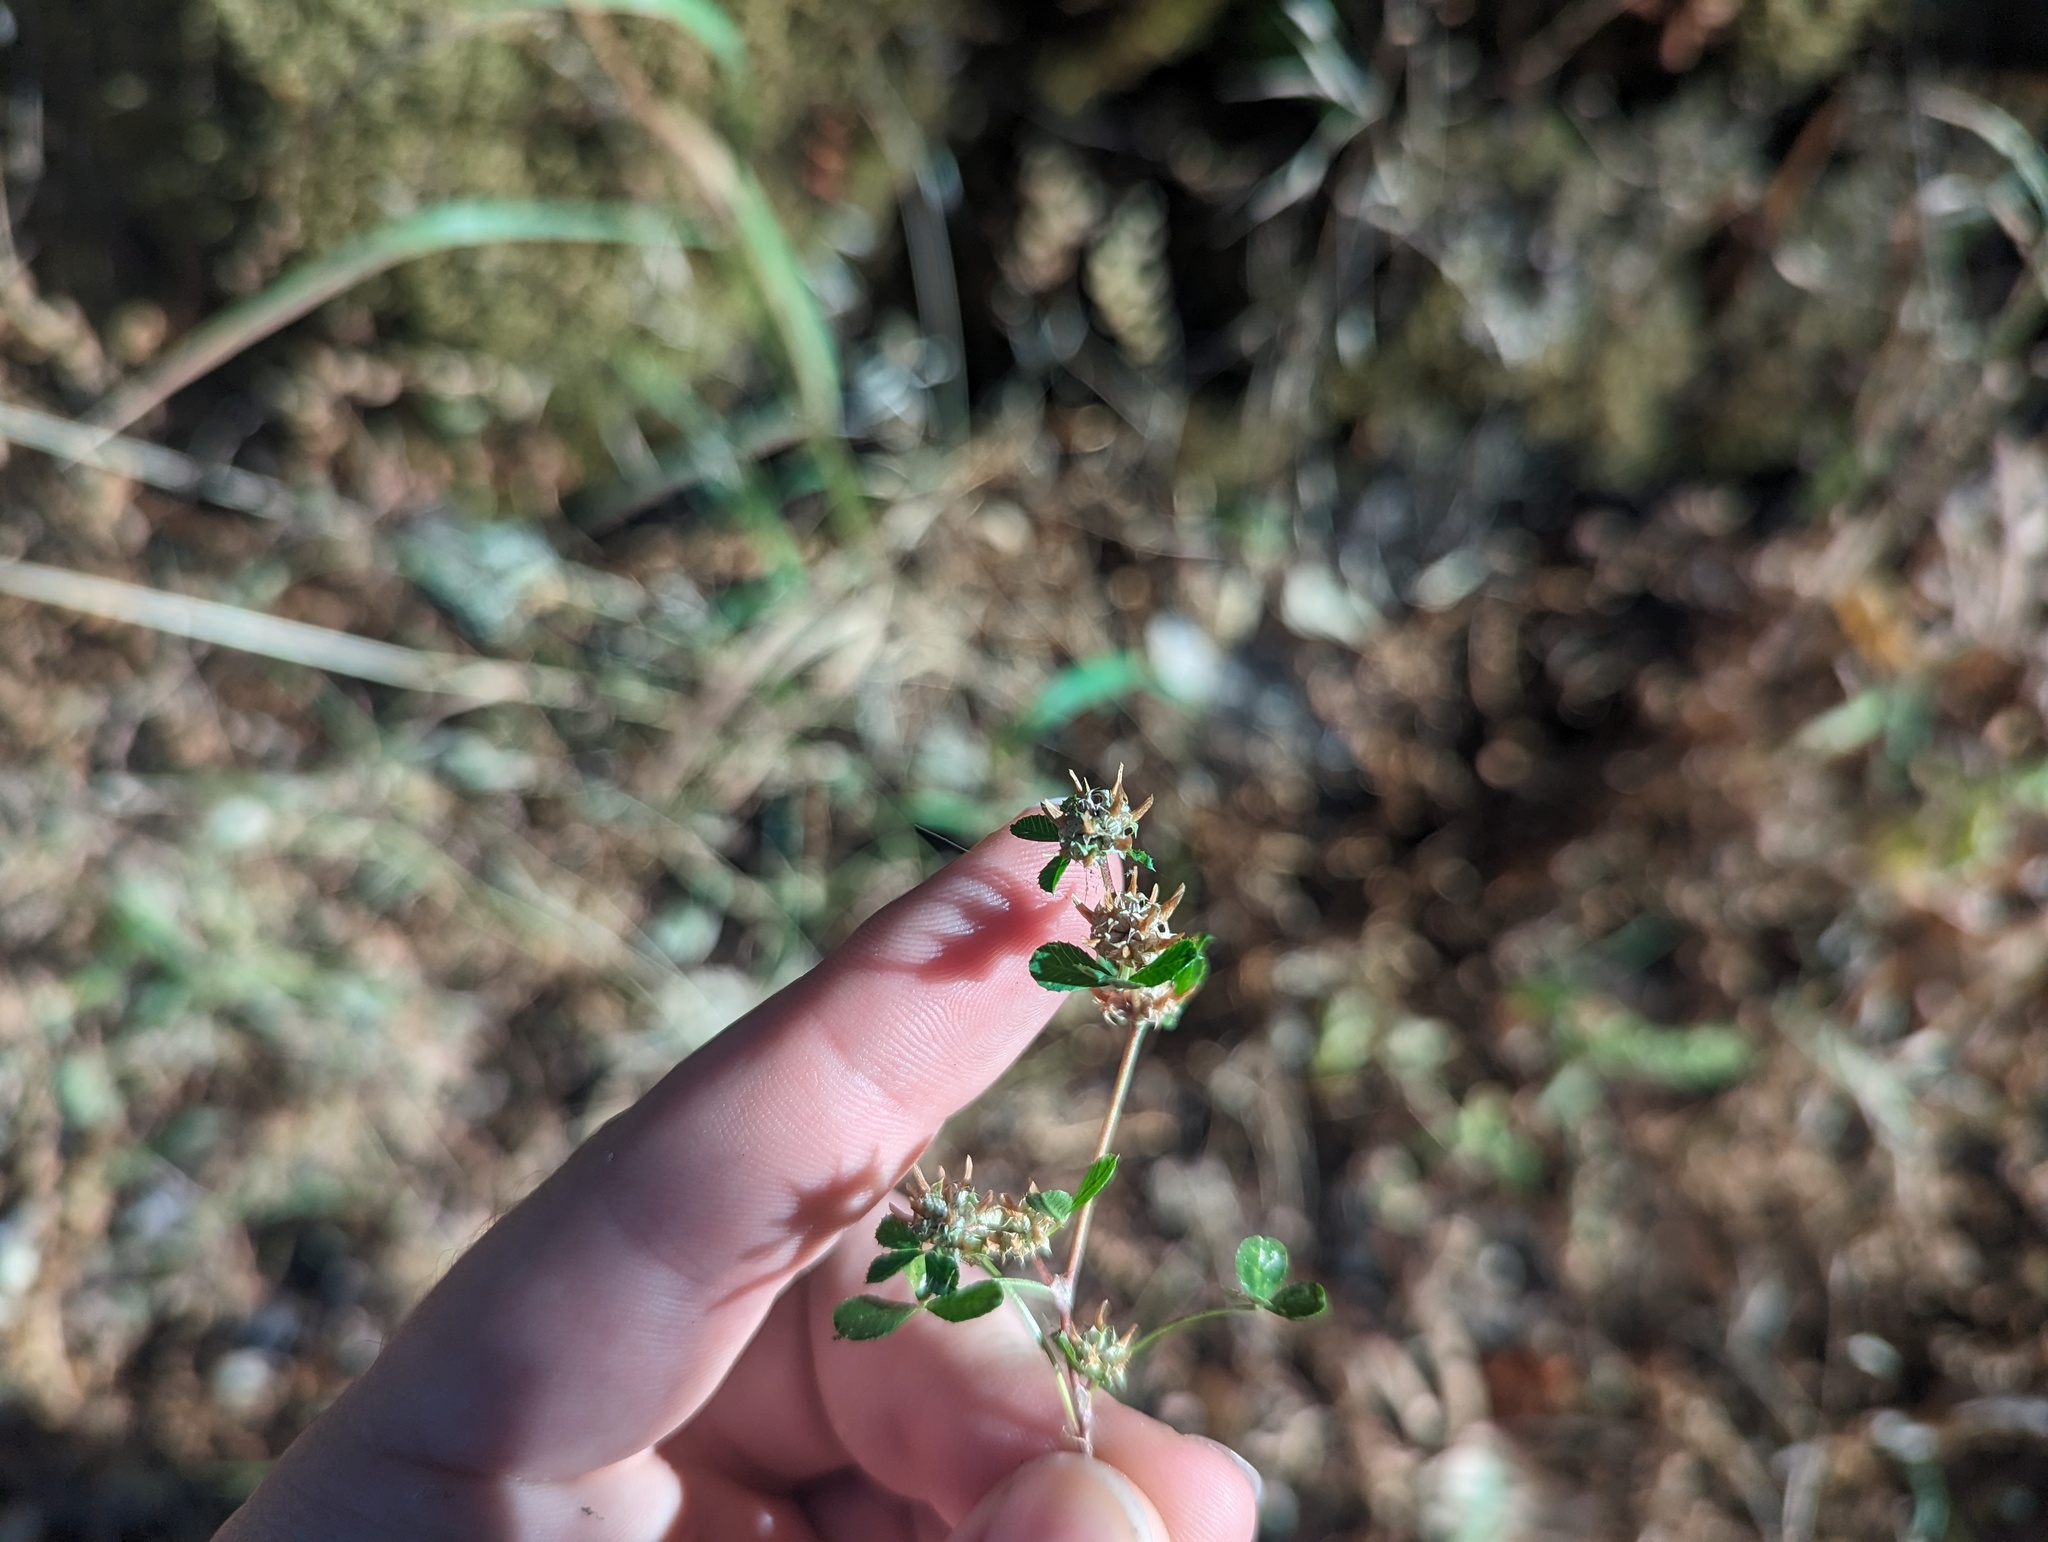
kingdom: Plantae
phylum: Tracheophyta
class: Magnoliopsida
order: Fabales
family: Fabaceae
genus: Trifolium
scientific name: Trifolium glomeratum
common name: Clustered clover
